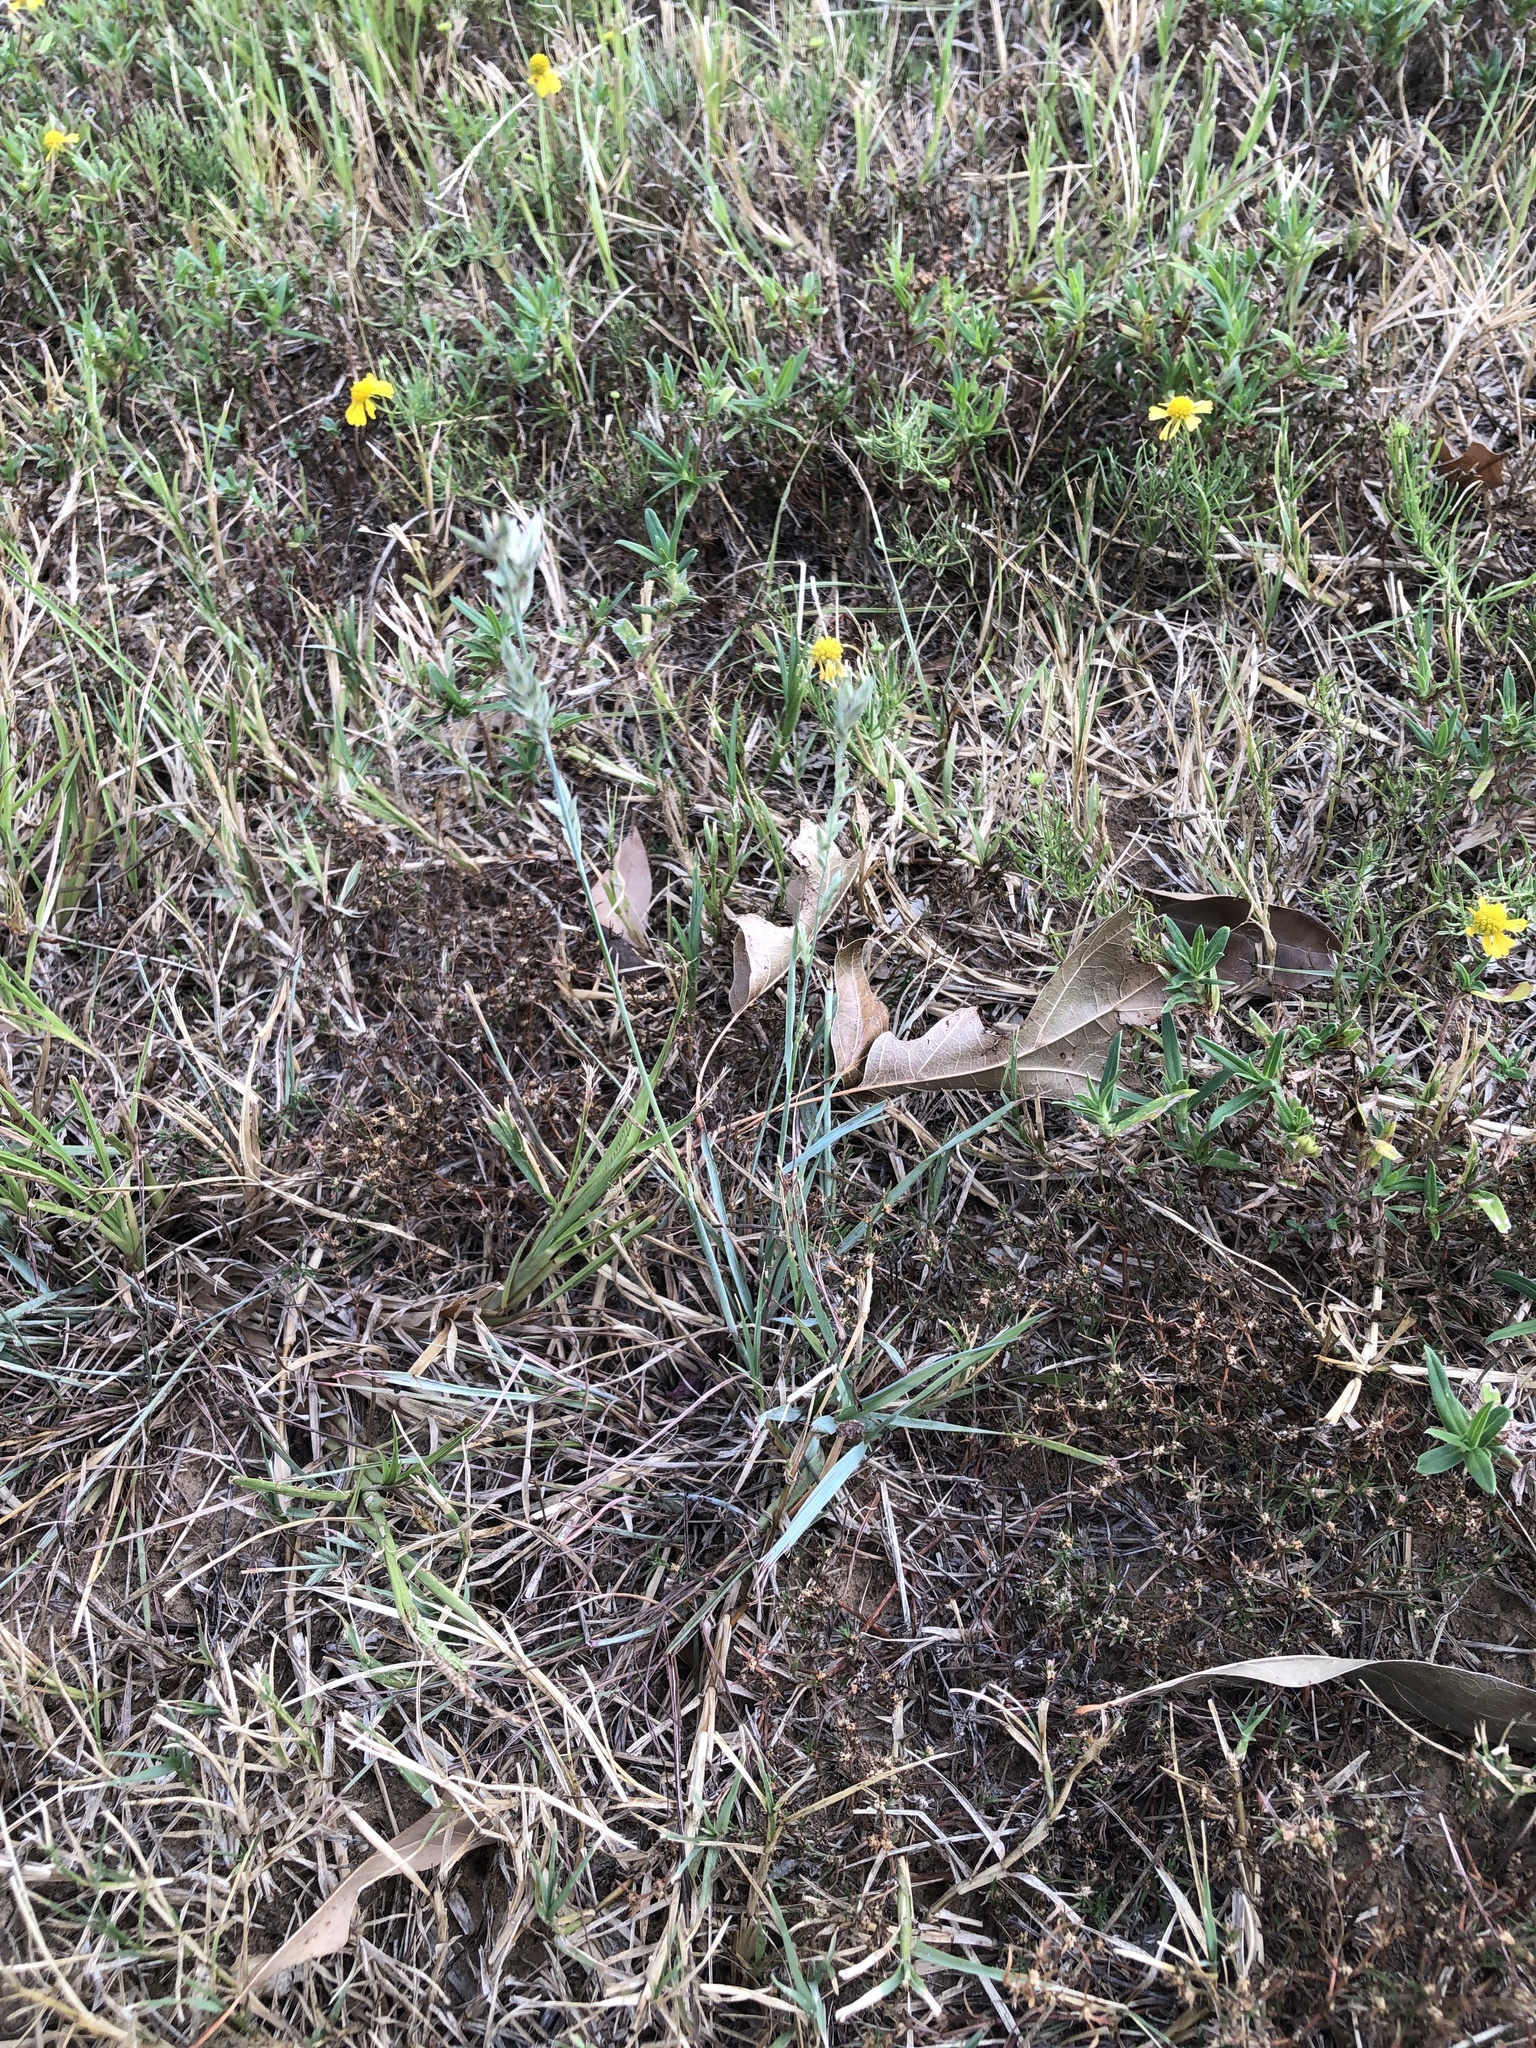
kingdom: Plantae
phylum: Tracheophyta
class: Liliopsida
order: Poales
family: Poaceae
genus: Eragrostis
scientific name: Eragrostis secundiflora
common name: Red love grass
